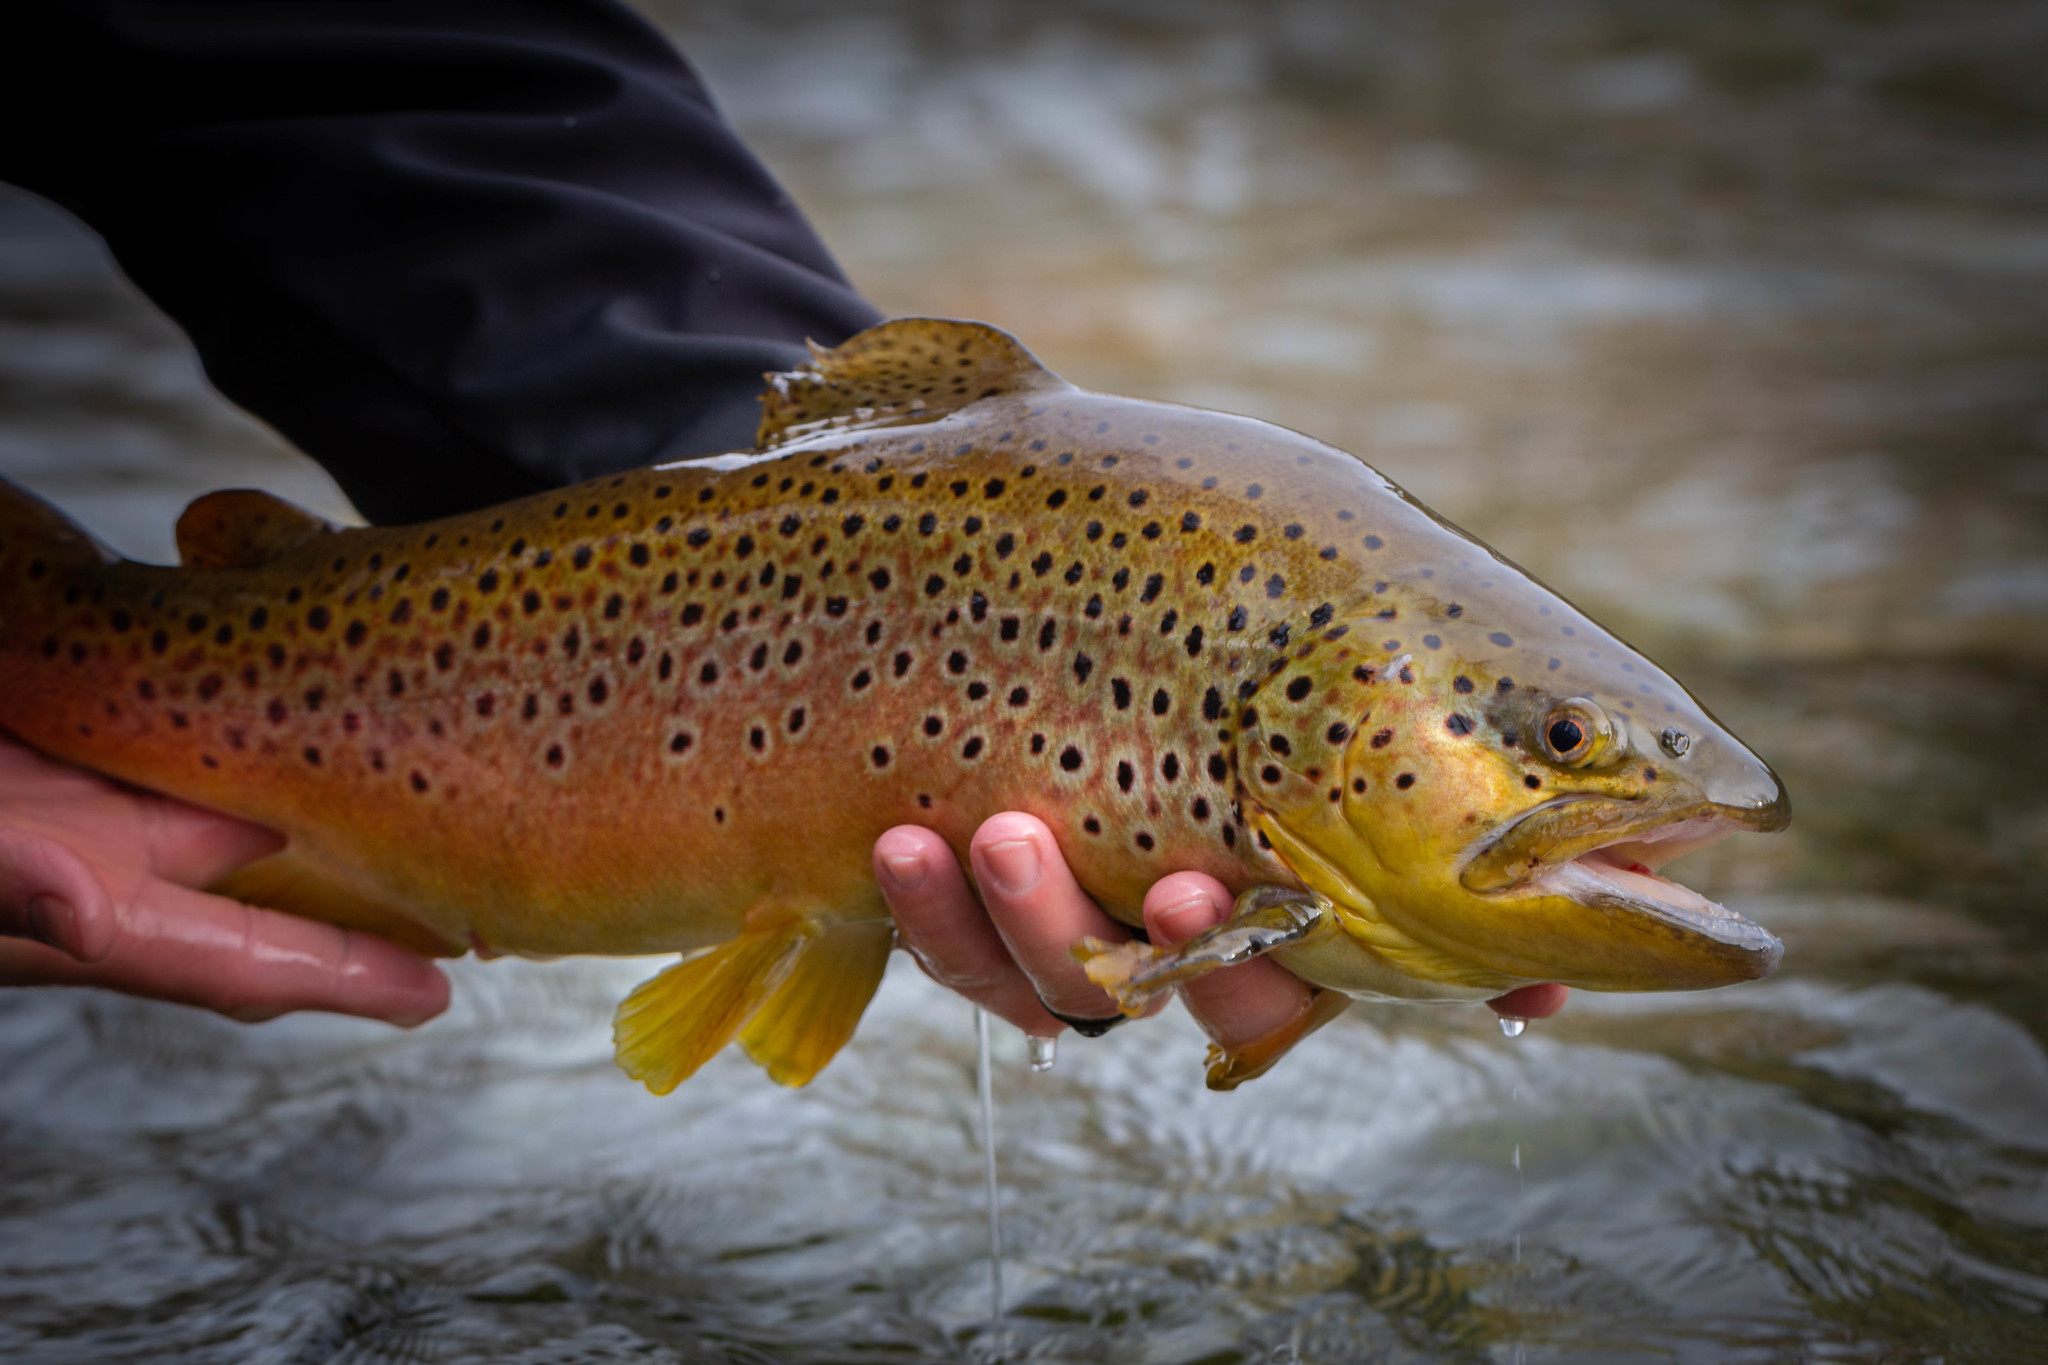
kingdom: Animalia
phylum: Chordata
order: Salmoniformes
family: Salmonidae
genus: Salmo
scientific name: Salmo trutta
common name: Brown trout
